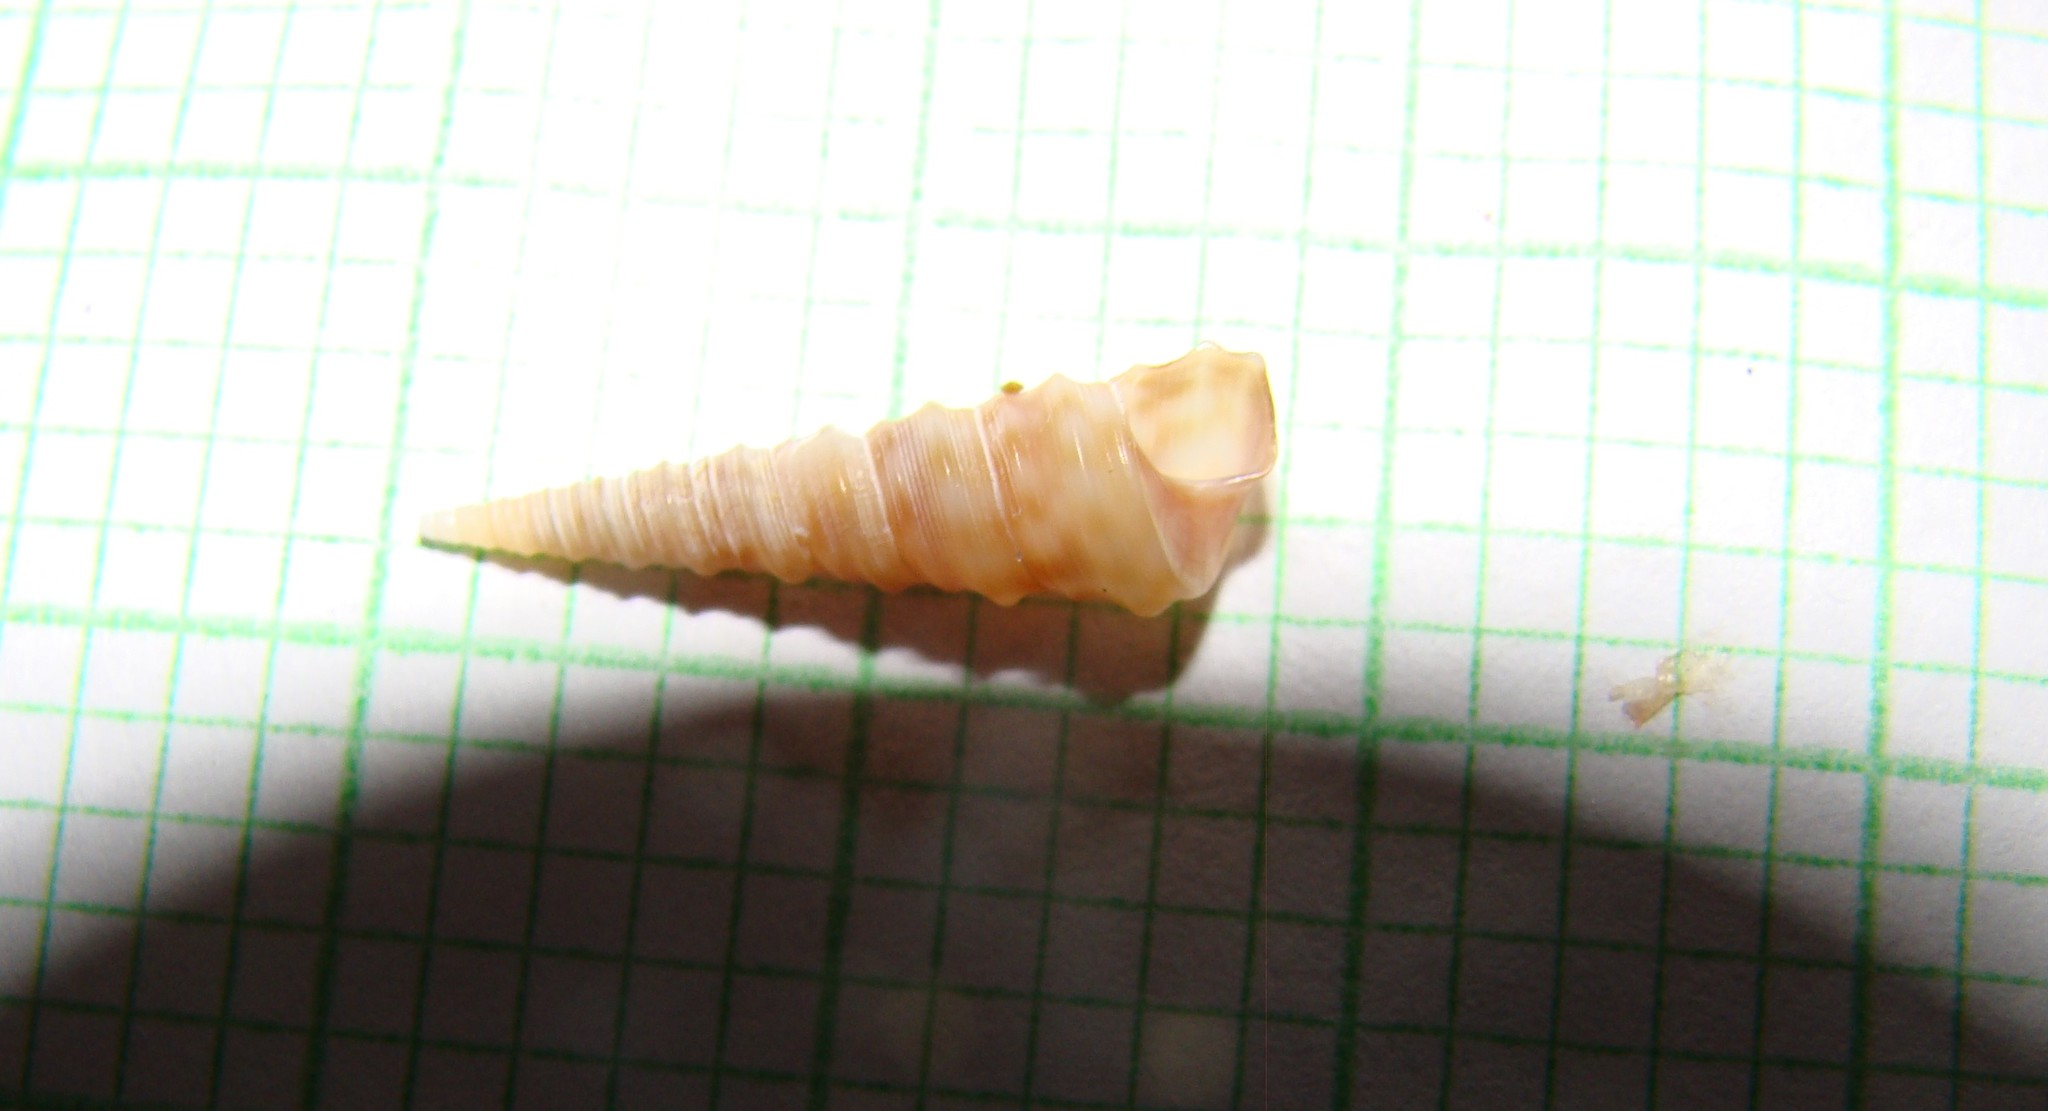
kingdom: Animalia
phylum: Mollusca
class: Gastropoda
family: Turritellidae
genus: Stiracolpus
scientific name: Stiracolpus pagoda
